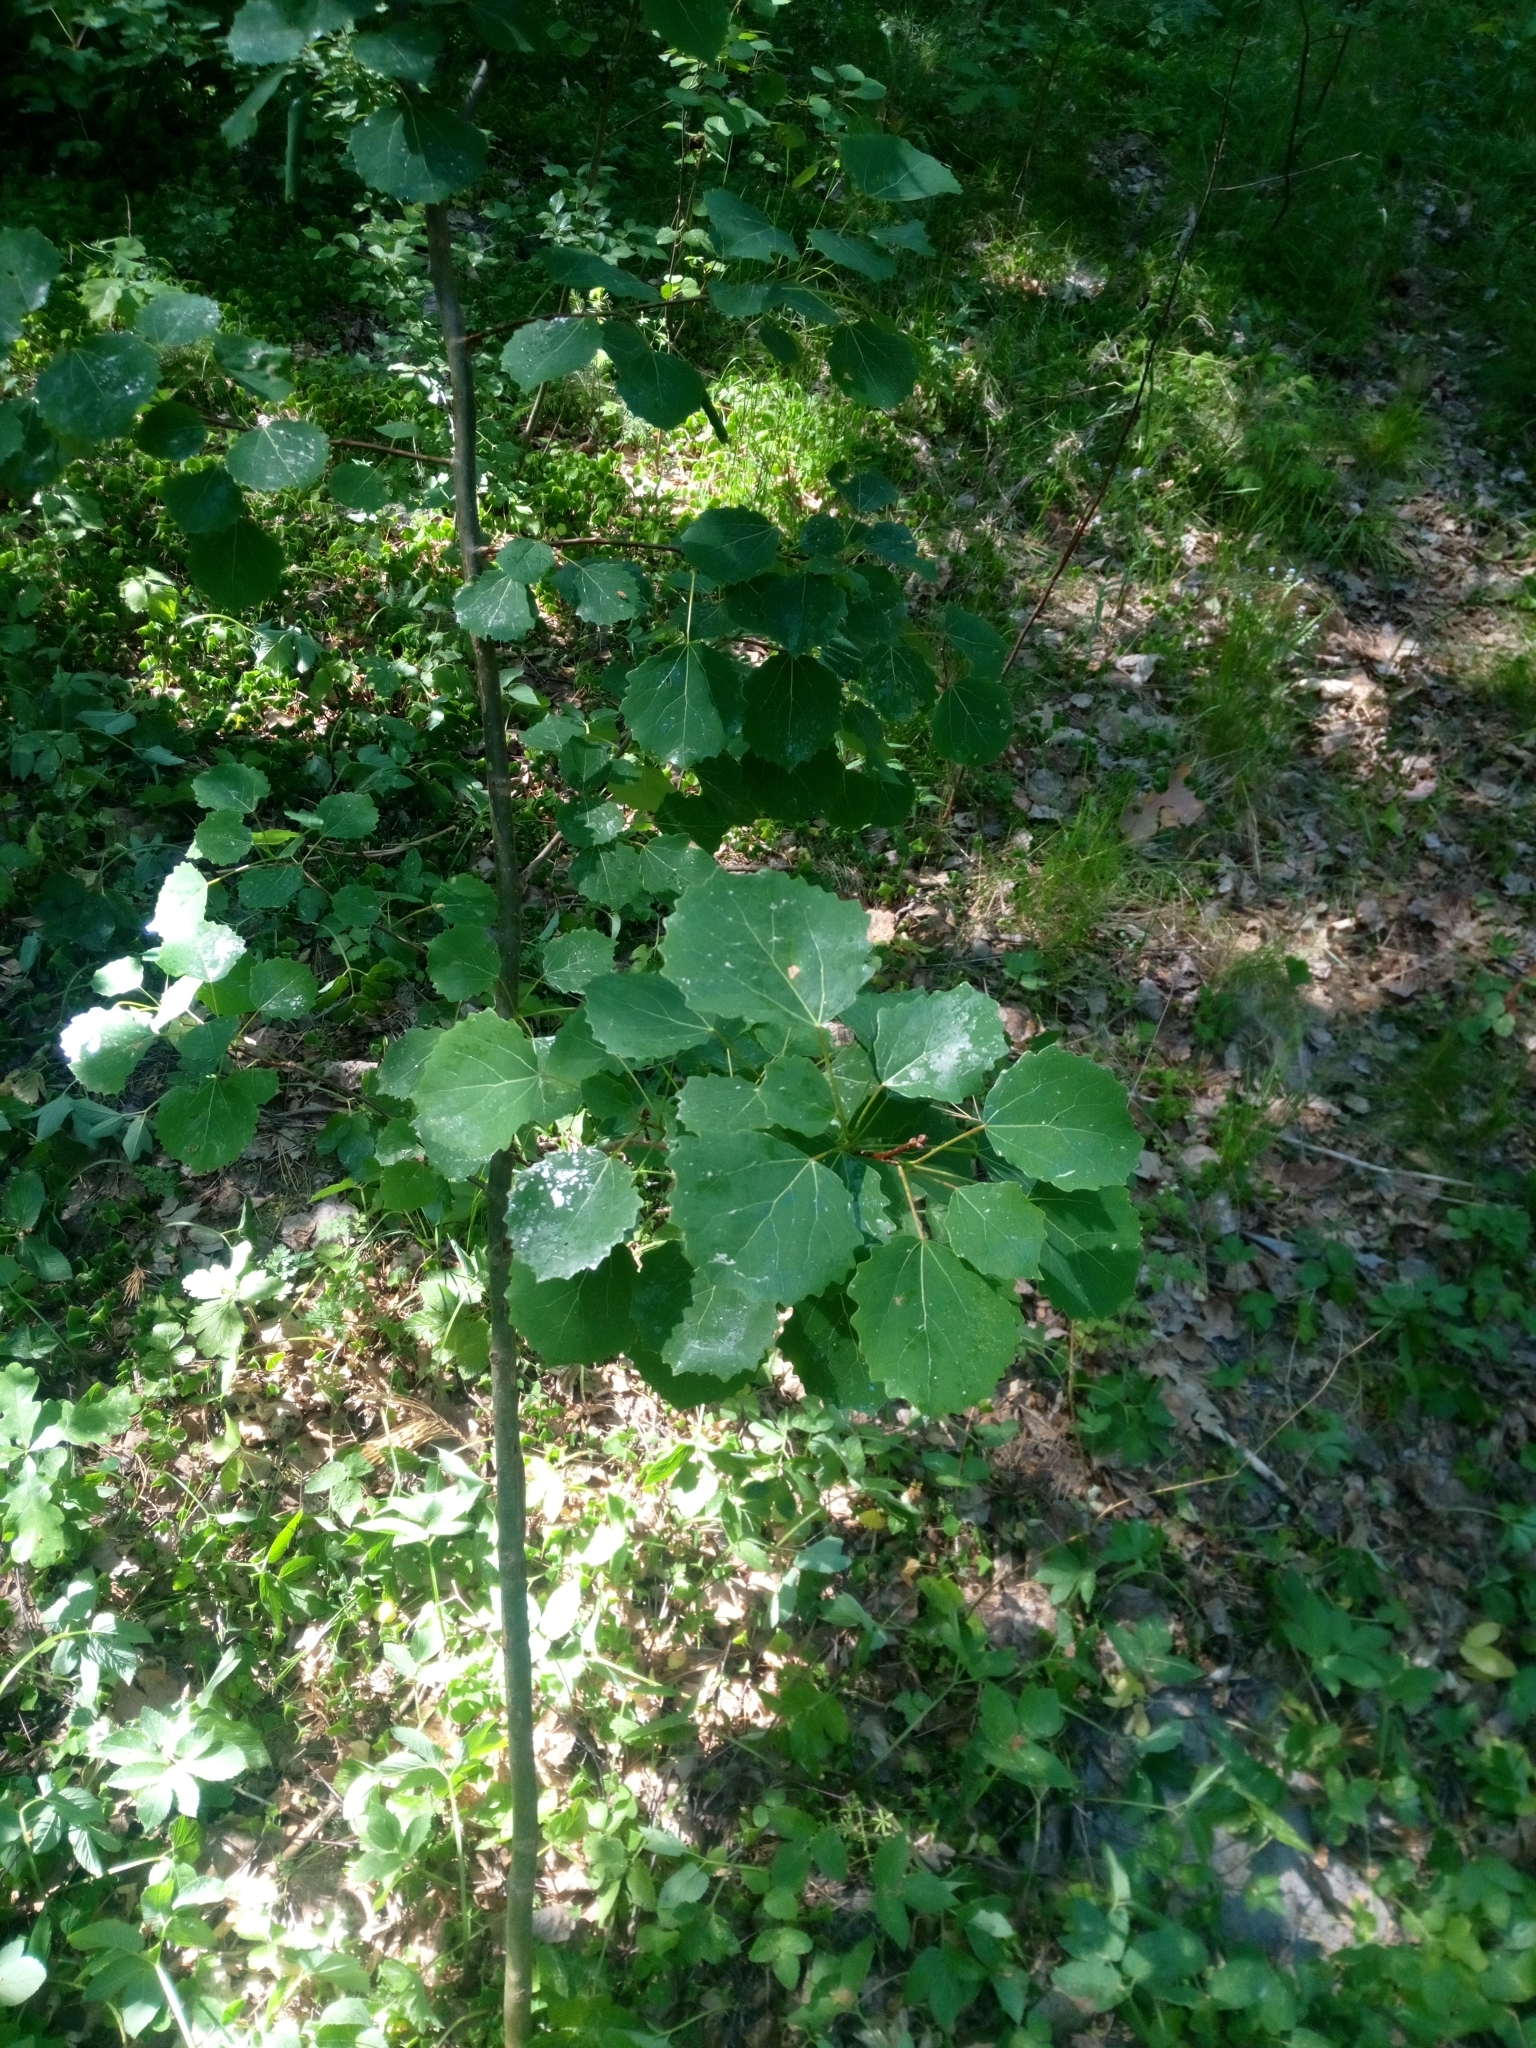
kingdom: Plantae
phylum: Tracheophyta
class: Magnoliopsida
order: Malpighiales
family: Salicaceae
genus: Populus
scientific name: Populus tremula
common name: European aspen
